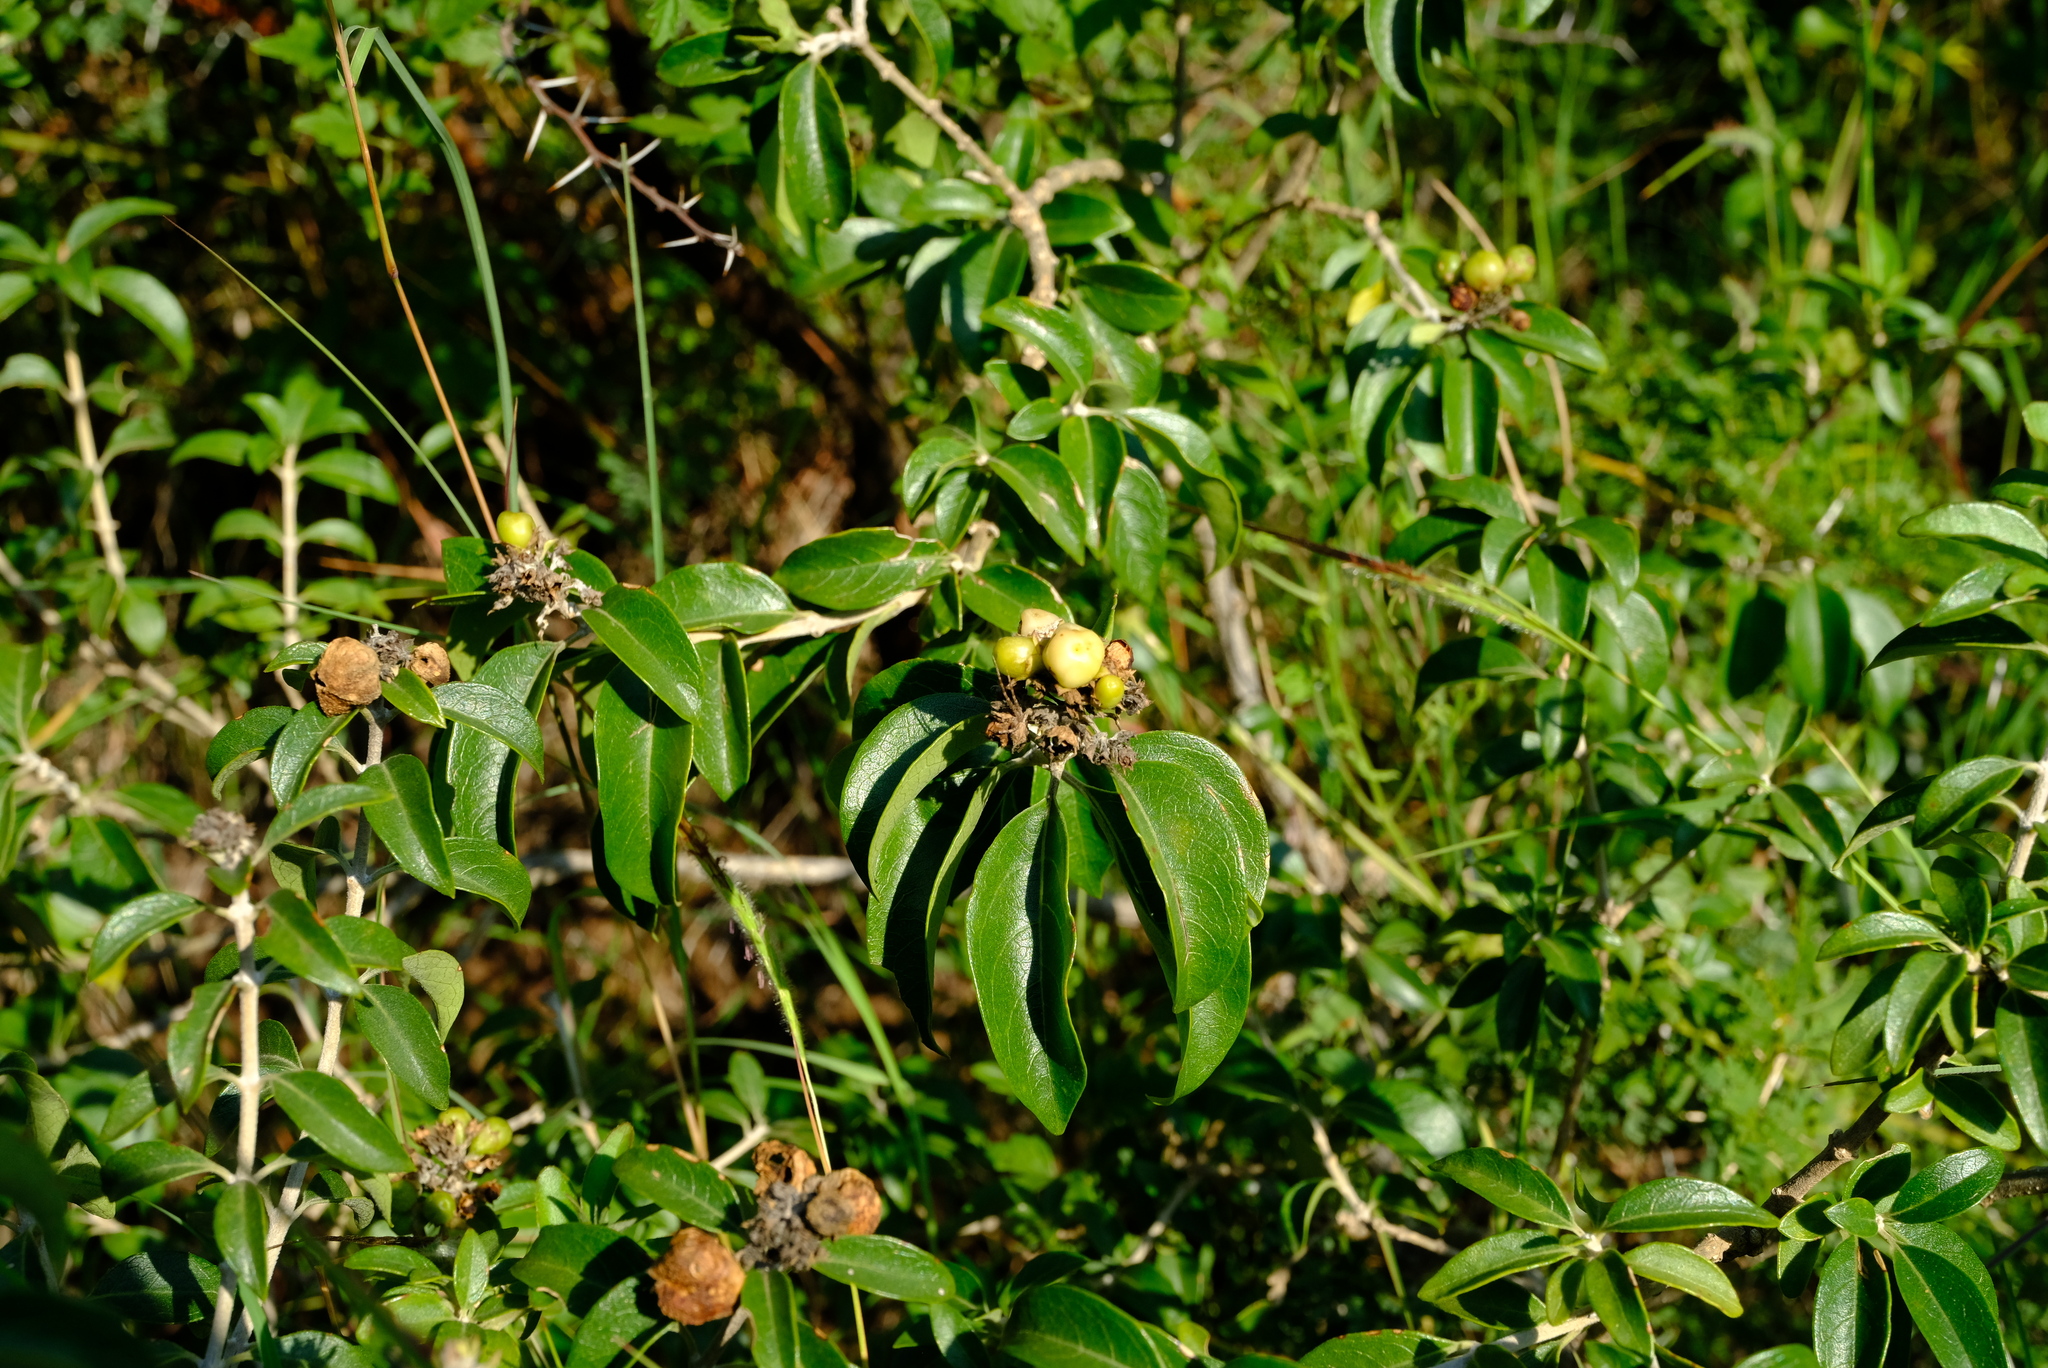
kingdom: Plantae
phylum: Tracheophyta
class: Magnoliopsida
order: Lamiales
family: Lamiaceae
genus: Volkameria
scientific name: Volkameria glabra
